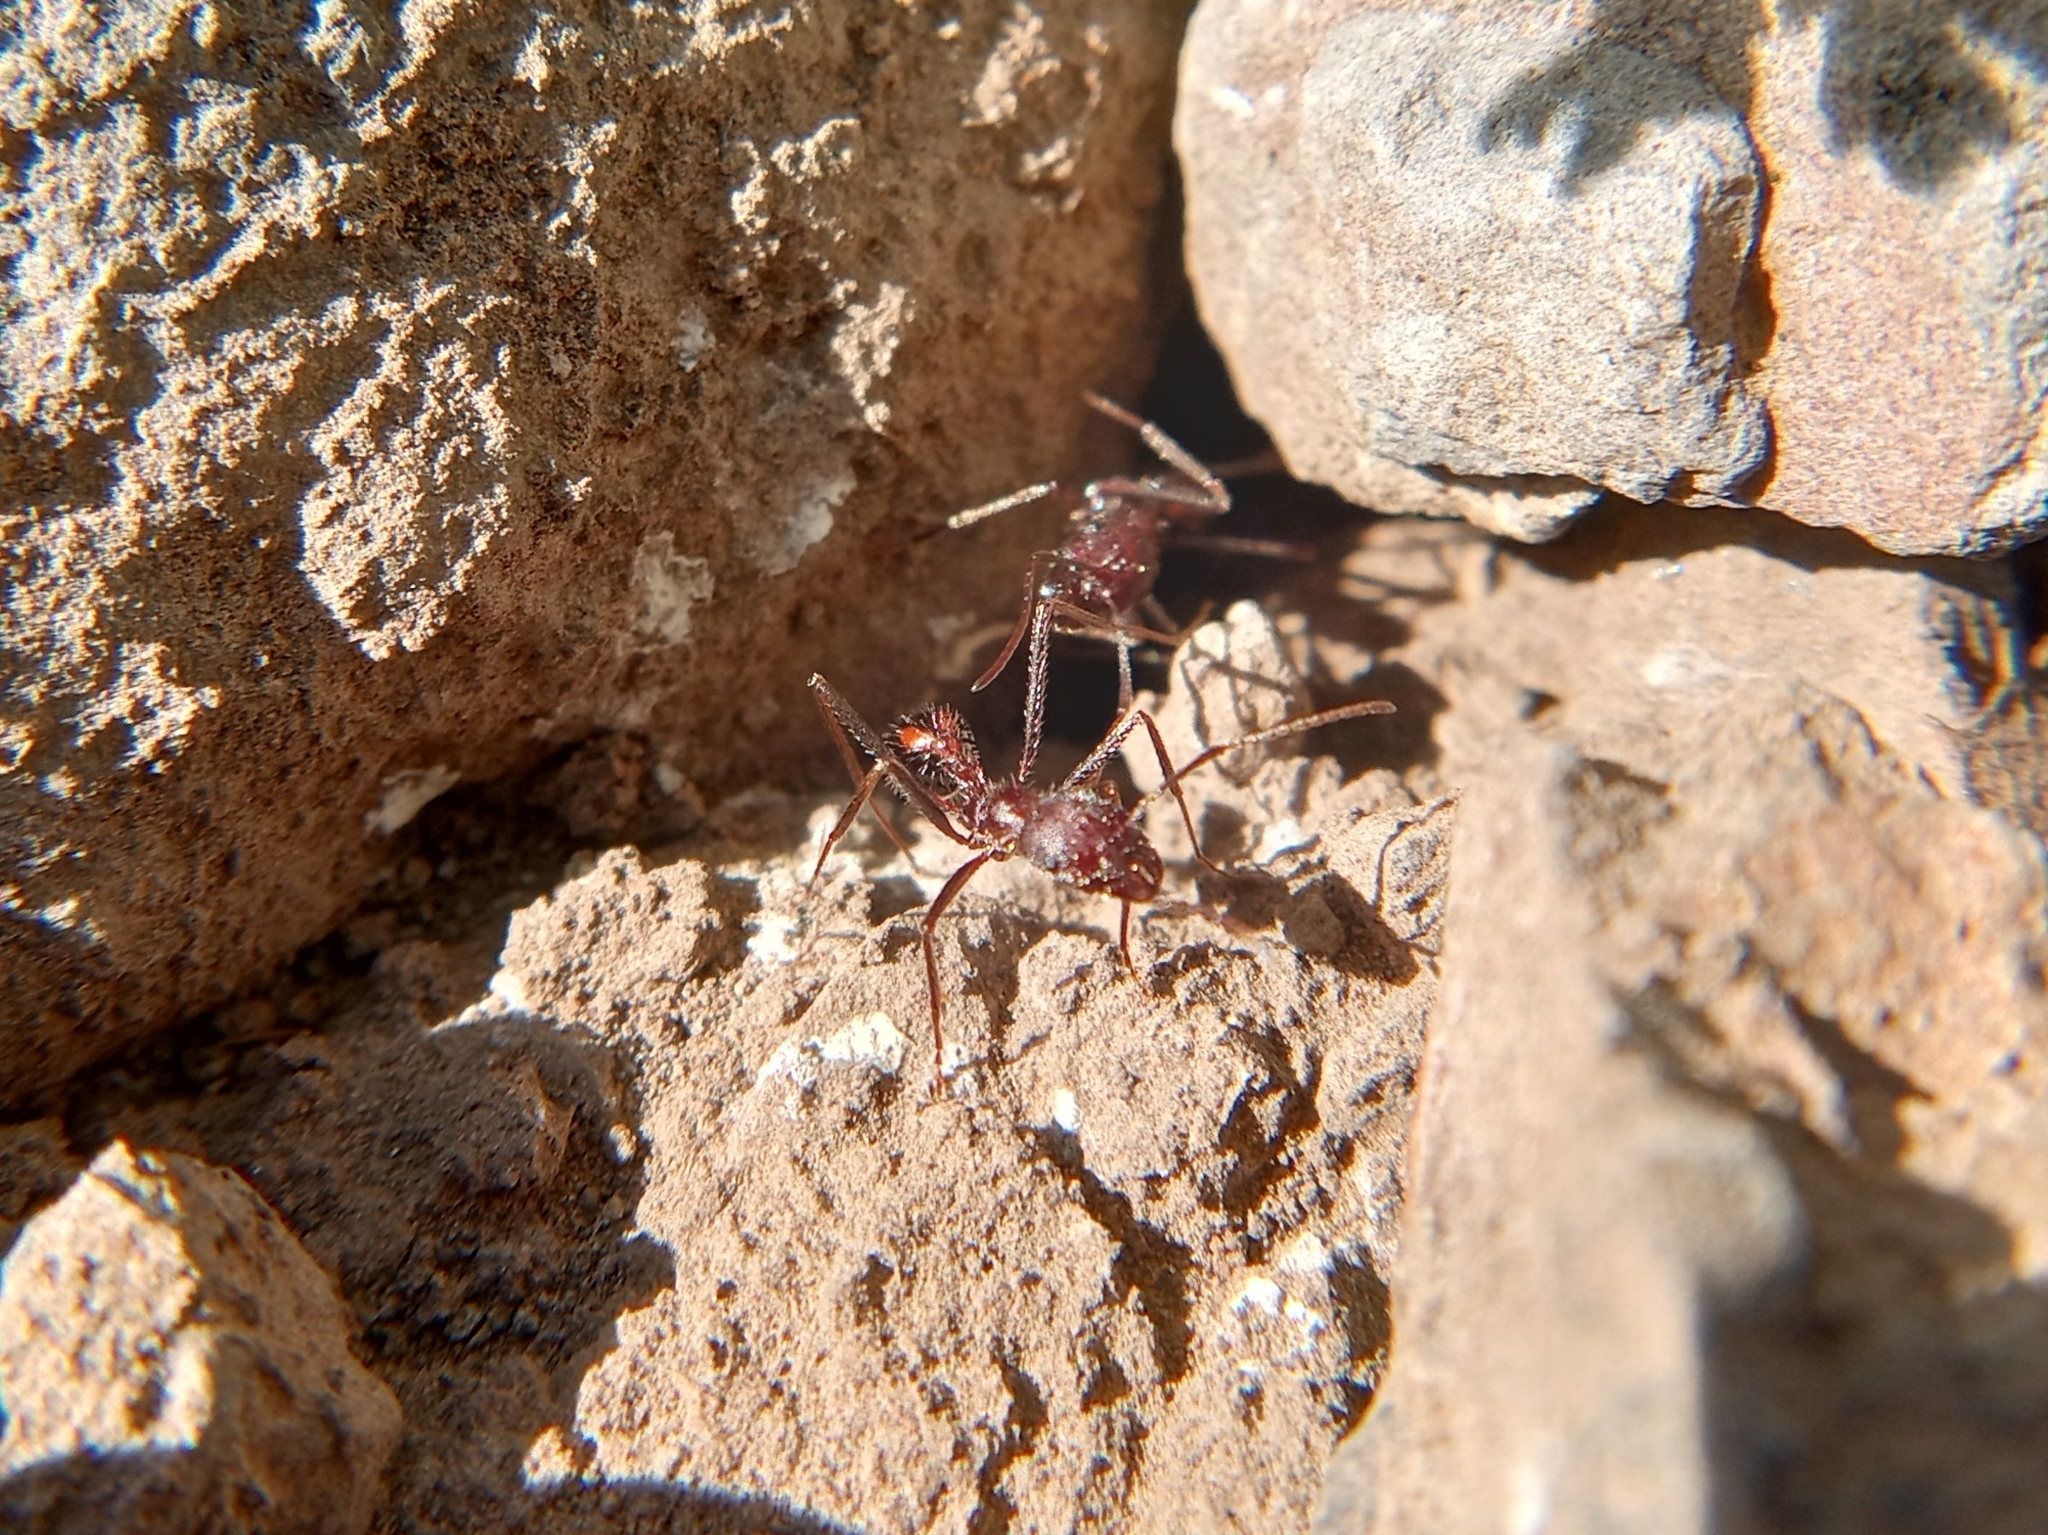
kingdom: Animalia
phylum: Arthropoda
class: Insecta
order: Hymenoptera
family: Formicidae
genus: Novomessor
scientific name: Novomessor albisetosa
